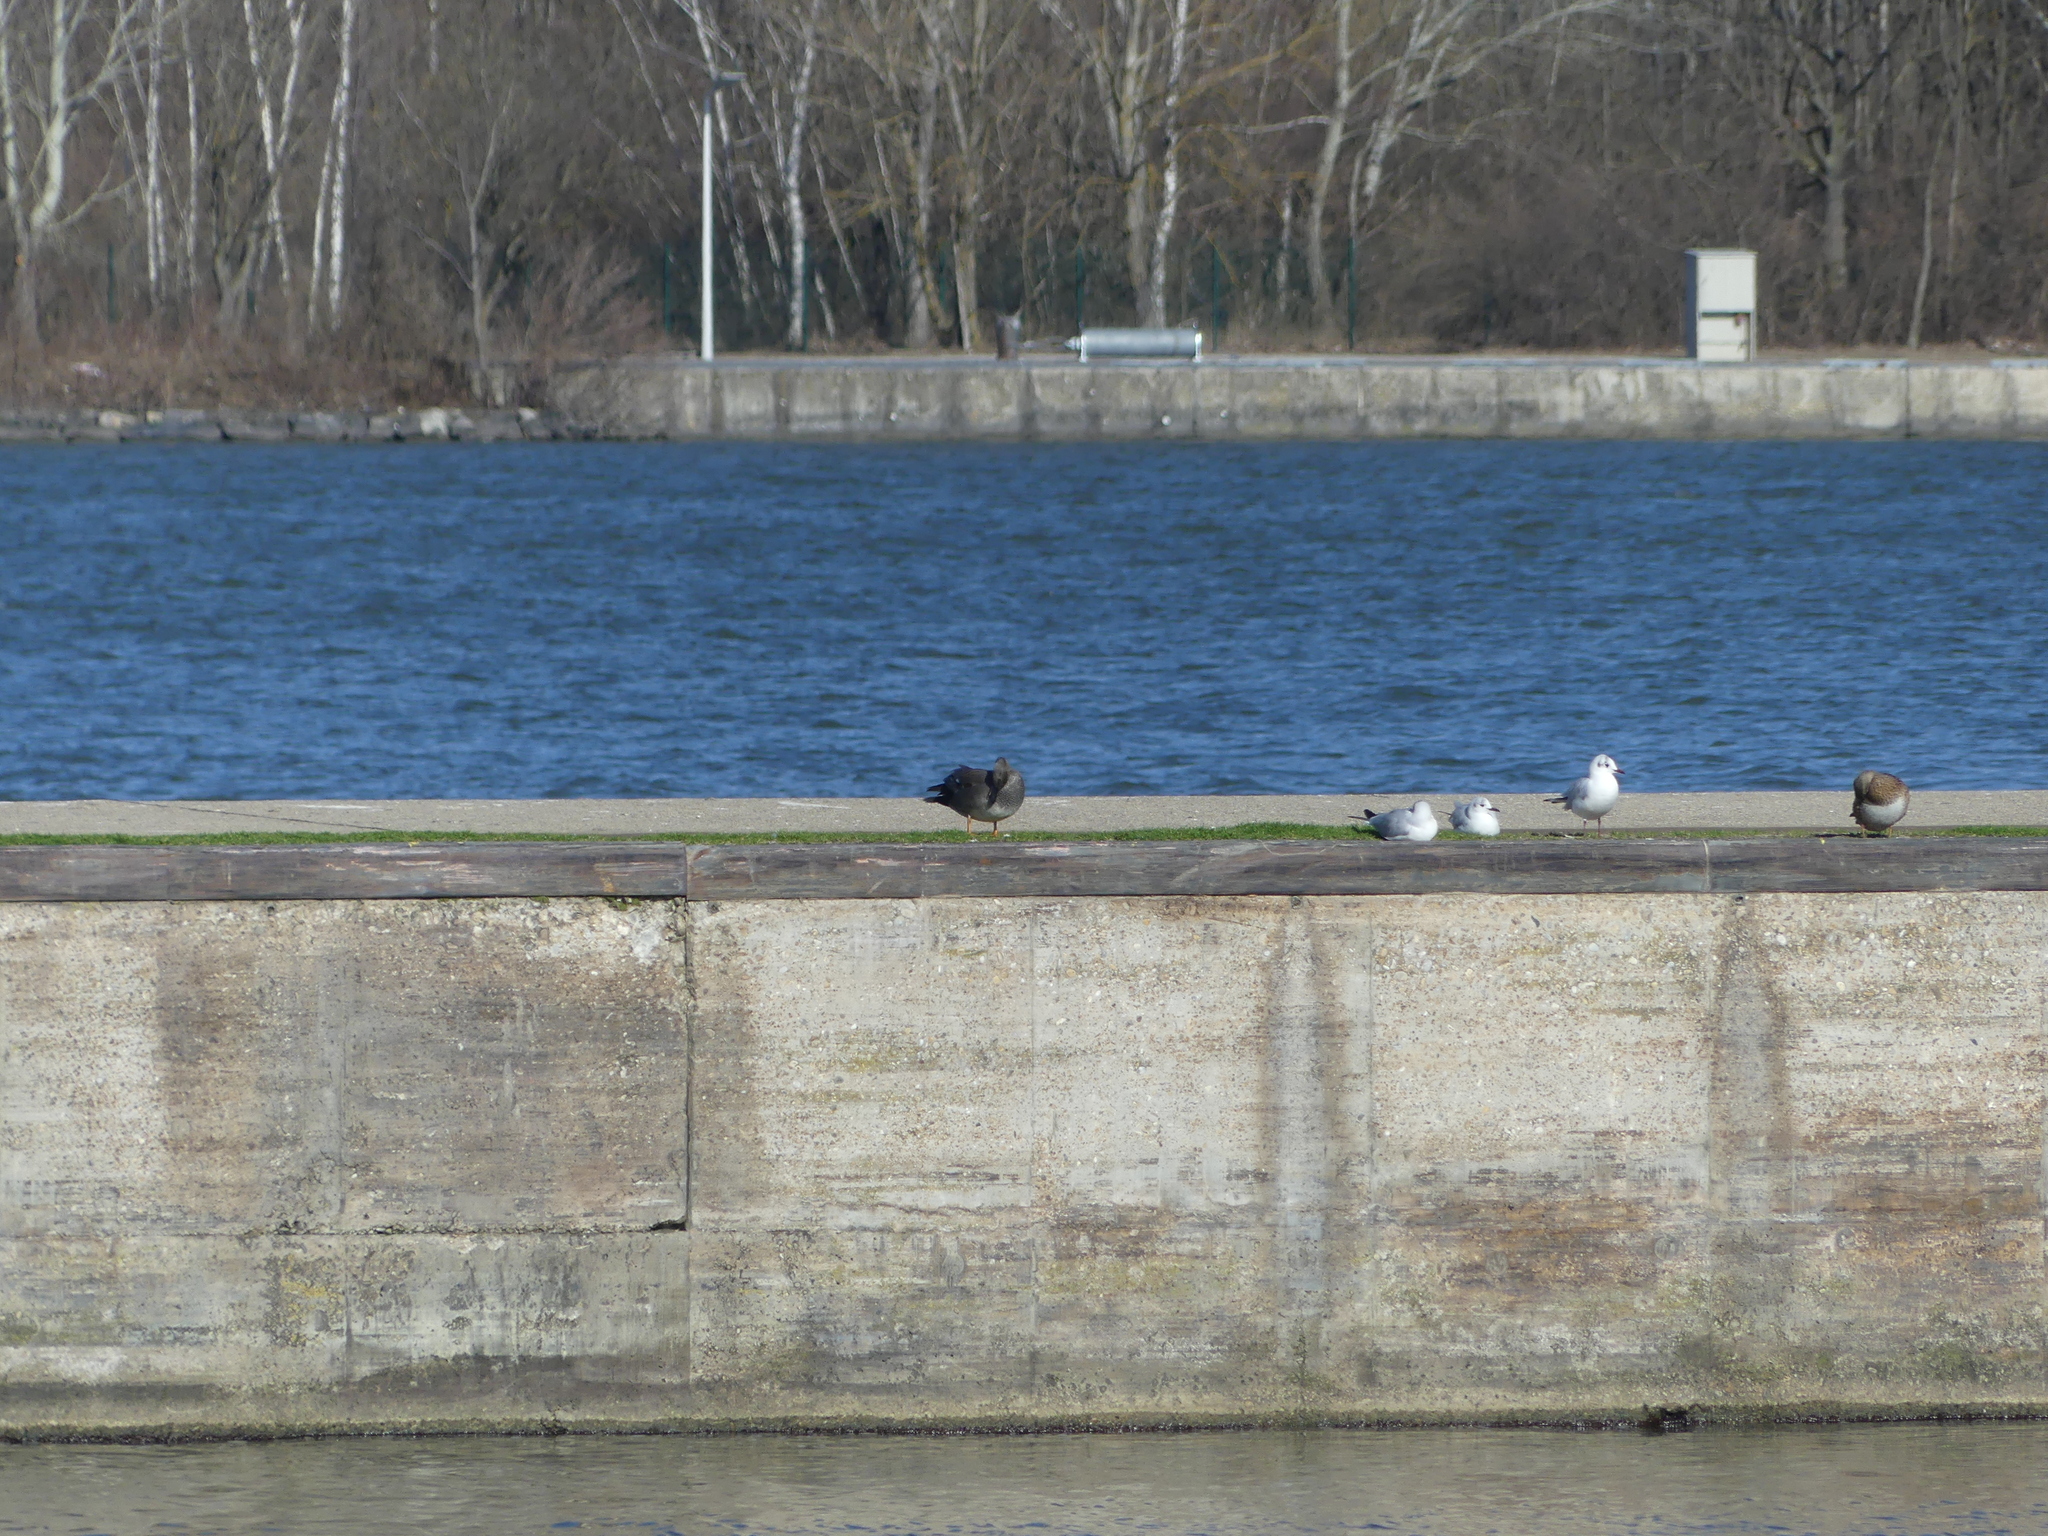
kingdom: Animalia
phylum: Chordata
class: Aves
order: Anseriformes
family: Anatidae
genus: Mareca
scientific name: Mareca strepera
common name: Gadwall
